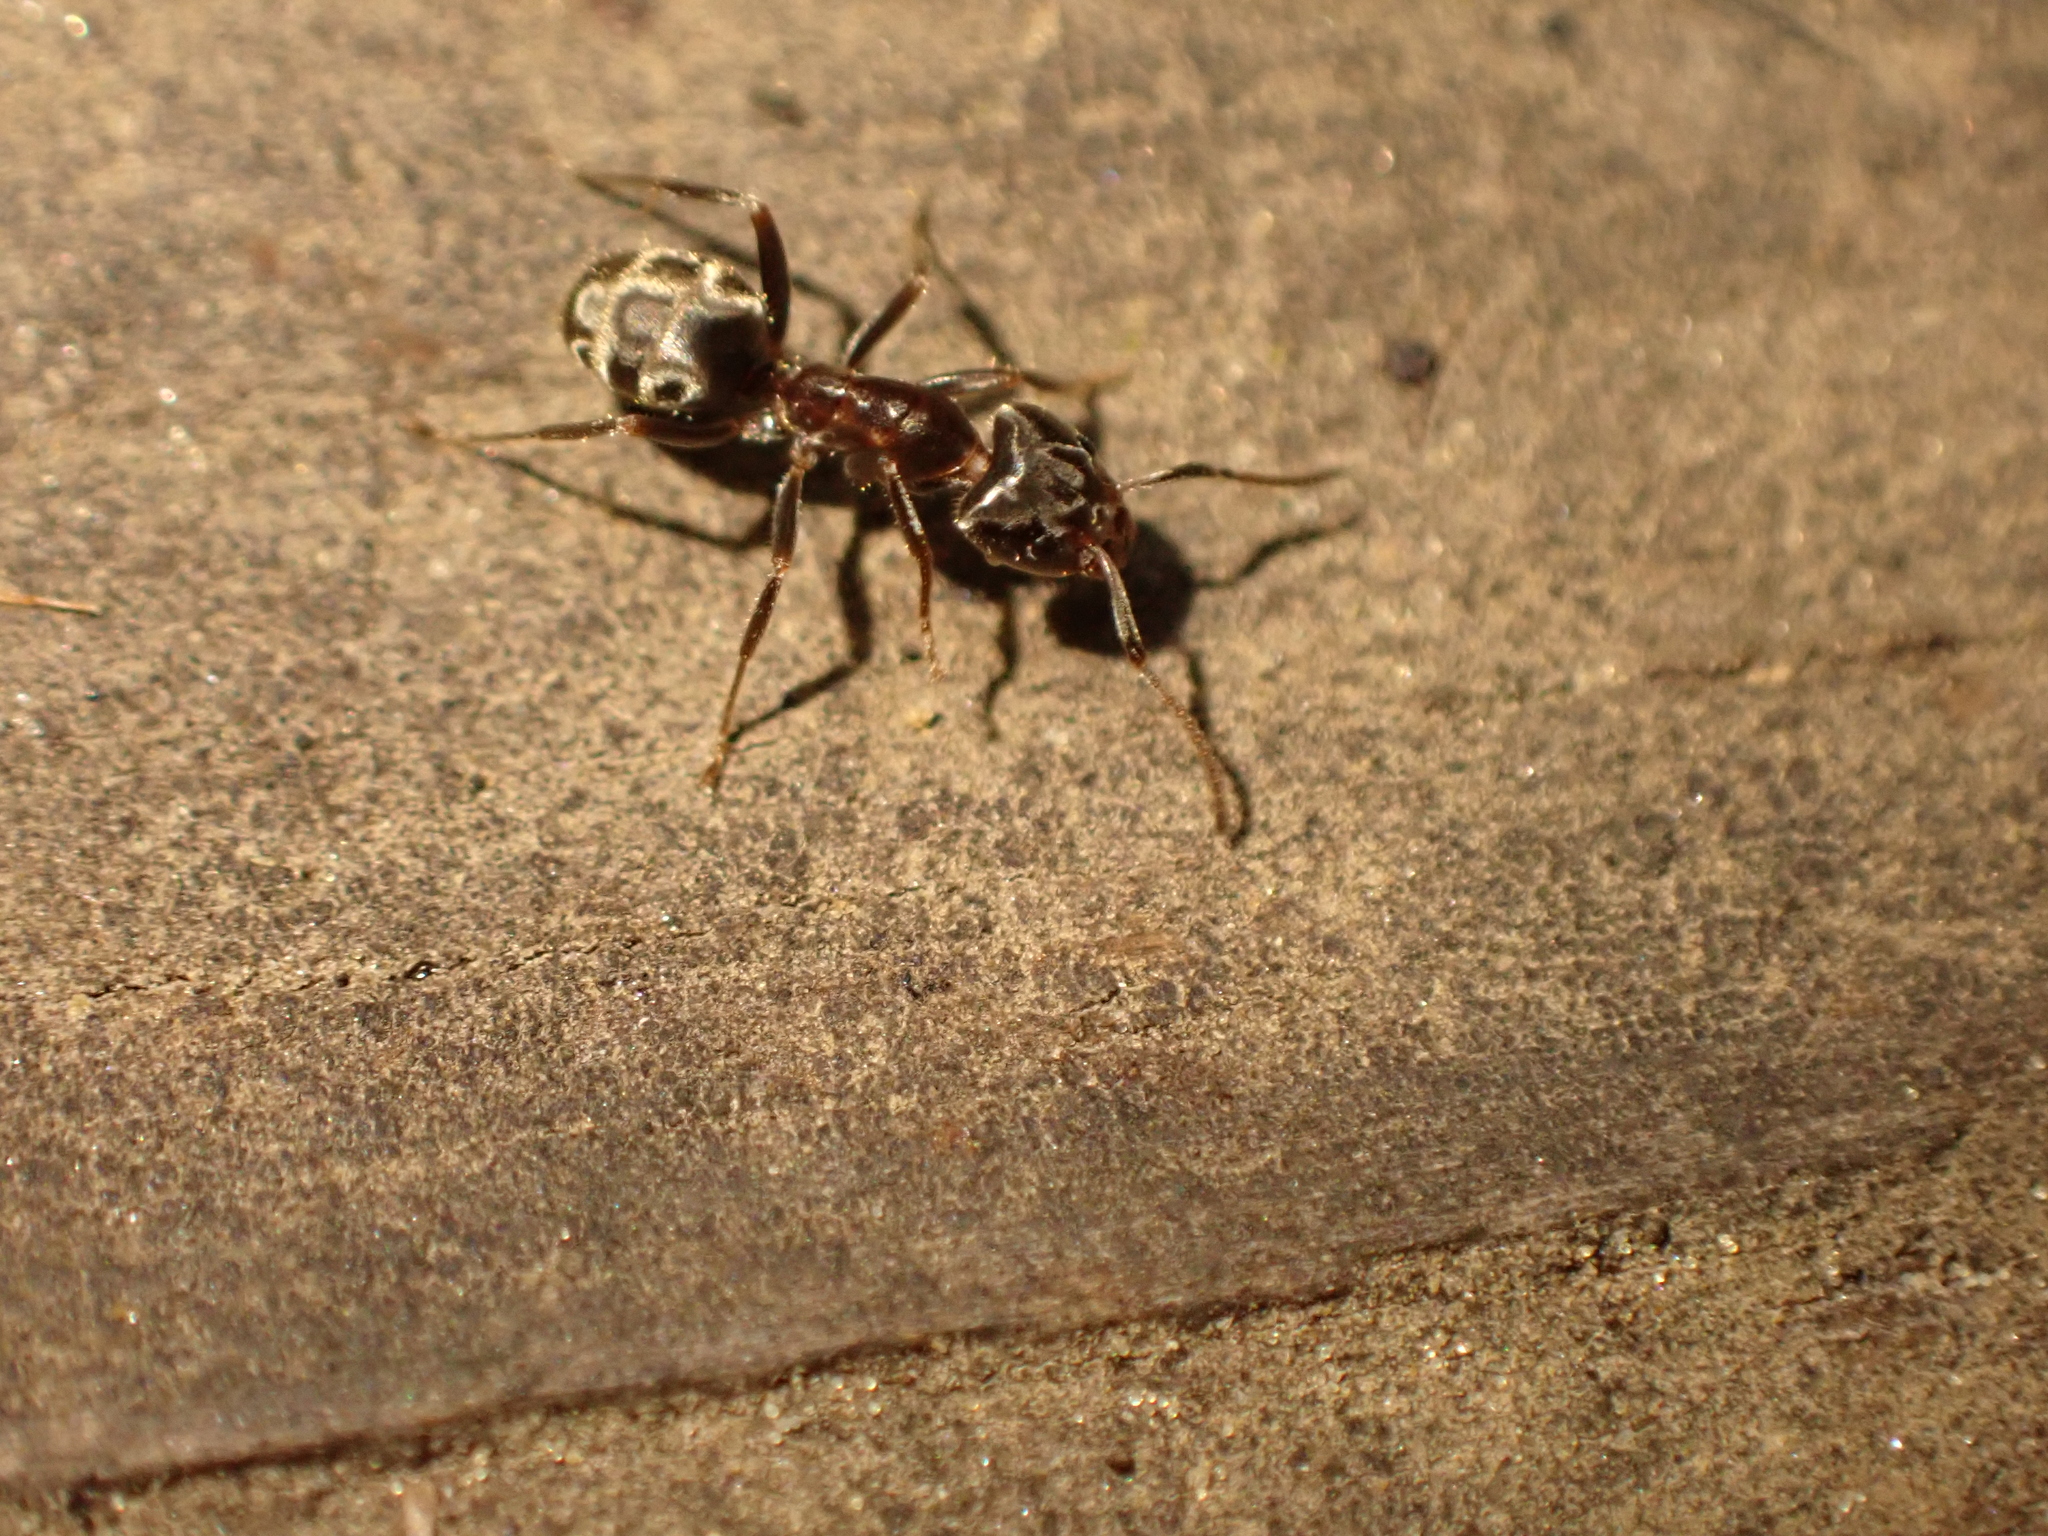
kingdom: Animalia
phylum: Arthropoda
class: Insecta
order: Hymenoptera
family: Formicidae
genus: Liometopum
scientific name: Liometopum luctuosum
